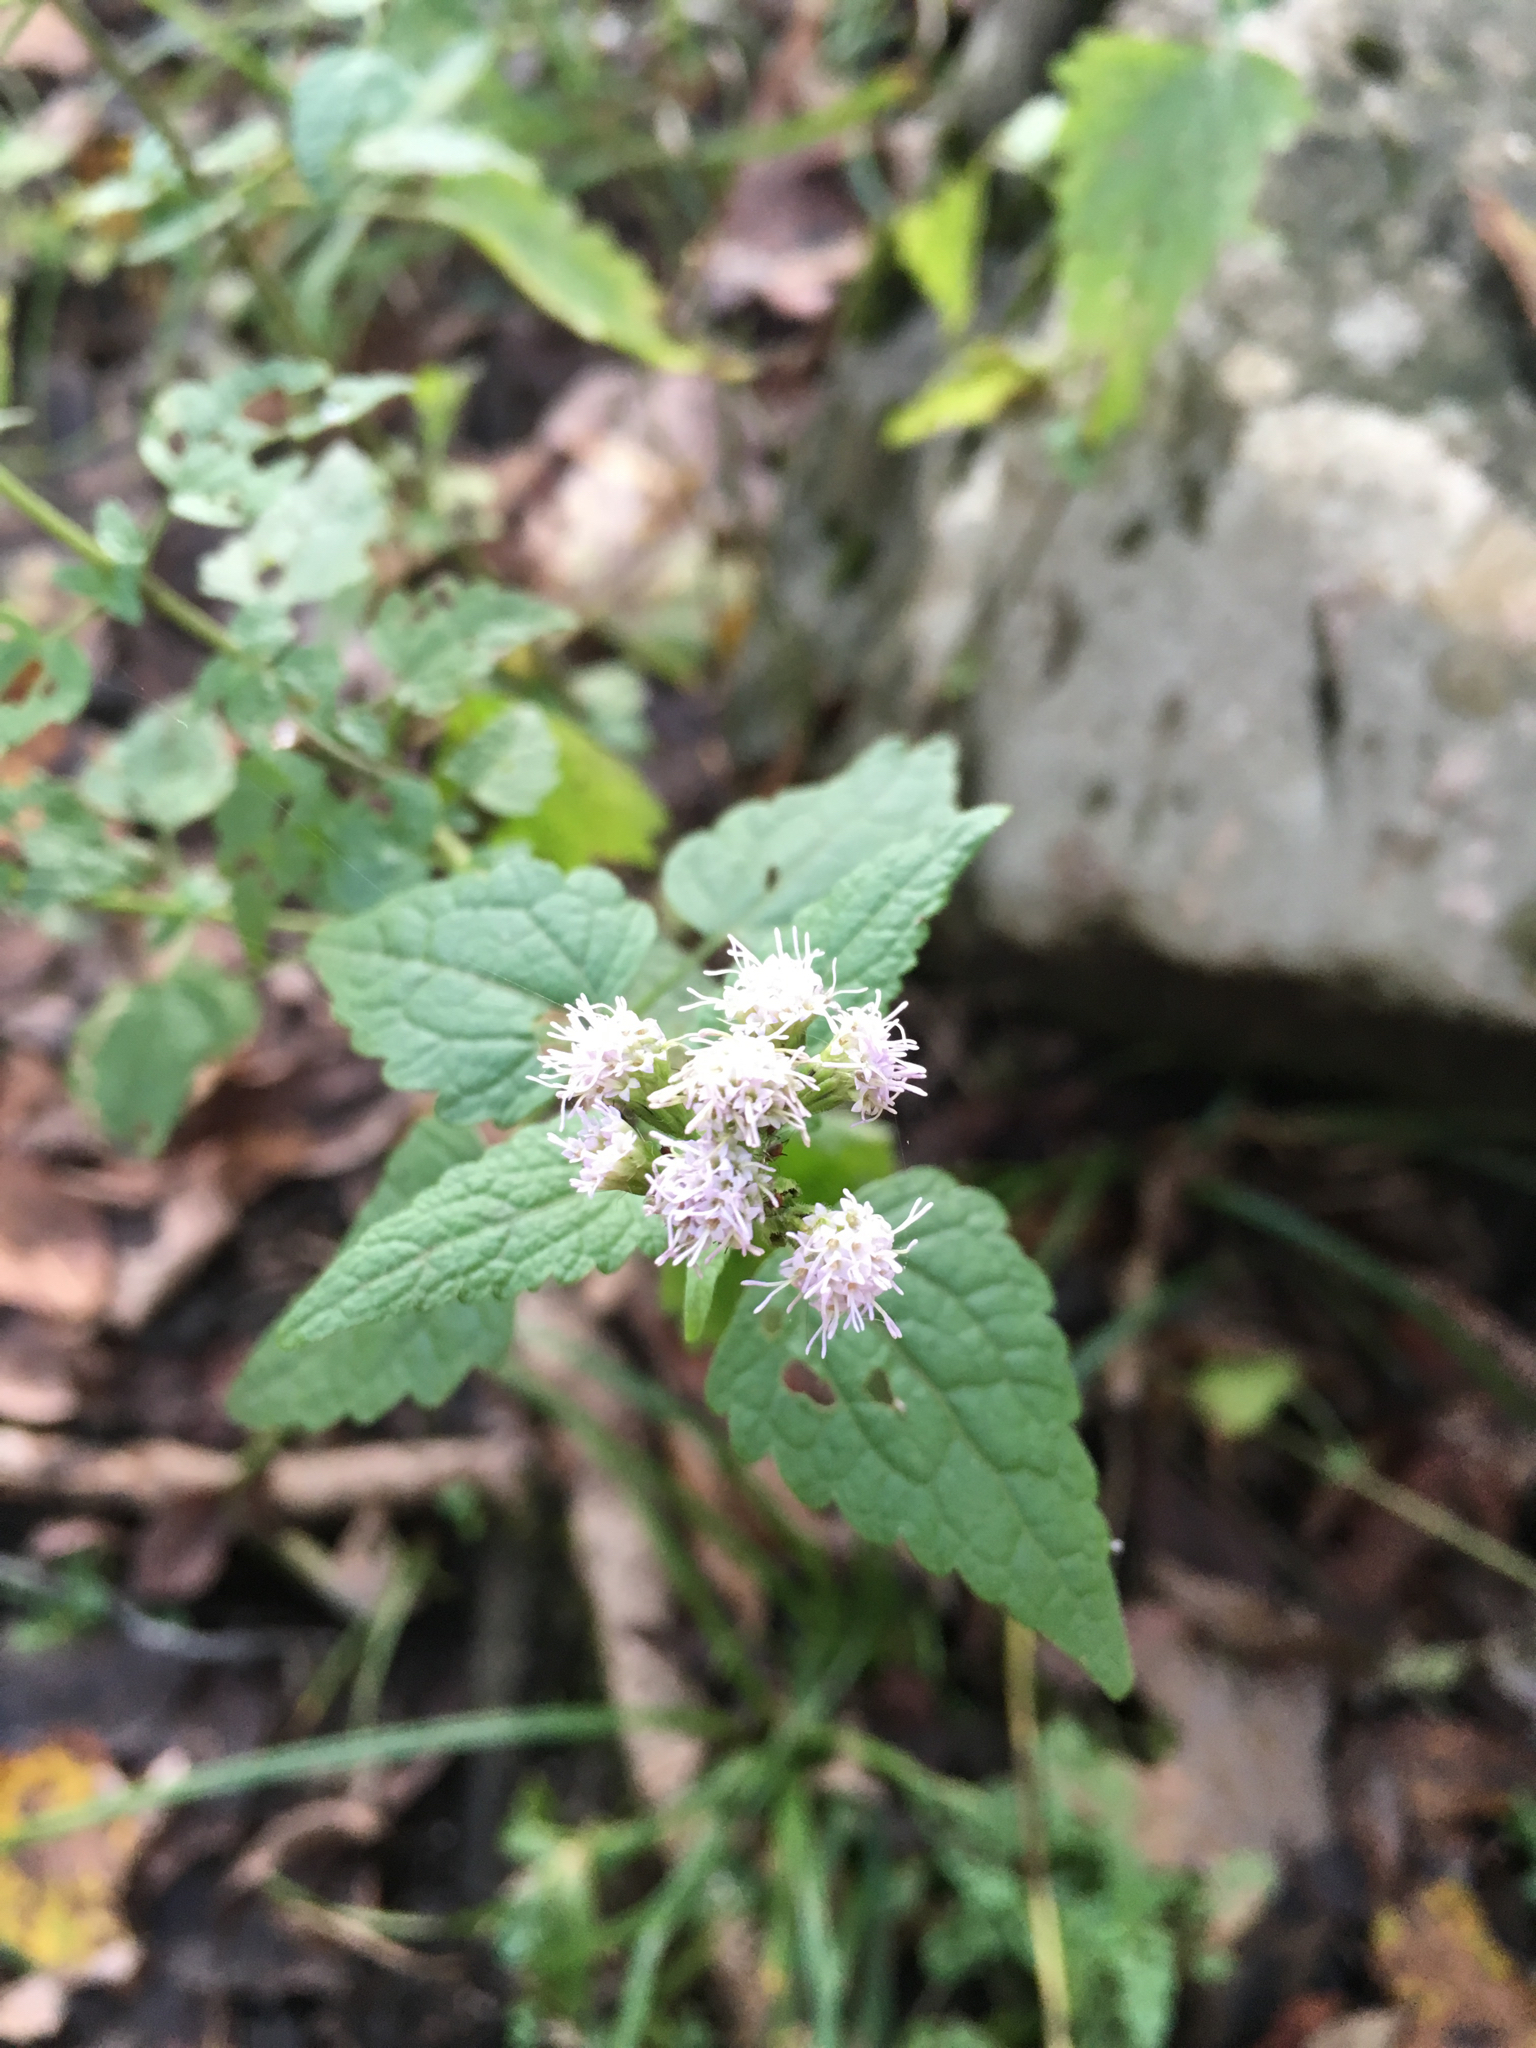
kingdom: Plantae
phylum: Tracheophyta
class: Magnoliopsida
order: Asterales
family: Asteraceae
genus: Ageratina
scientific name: Ageratina altissima
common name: White snakeroot
